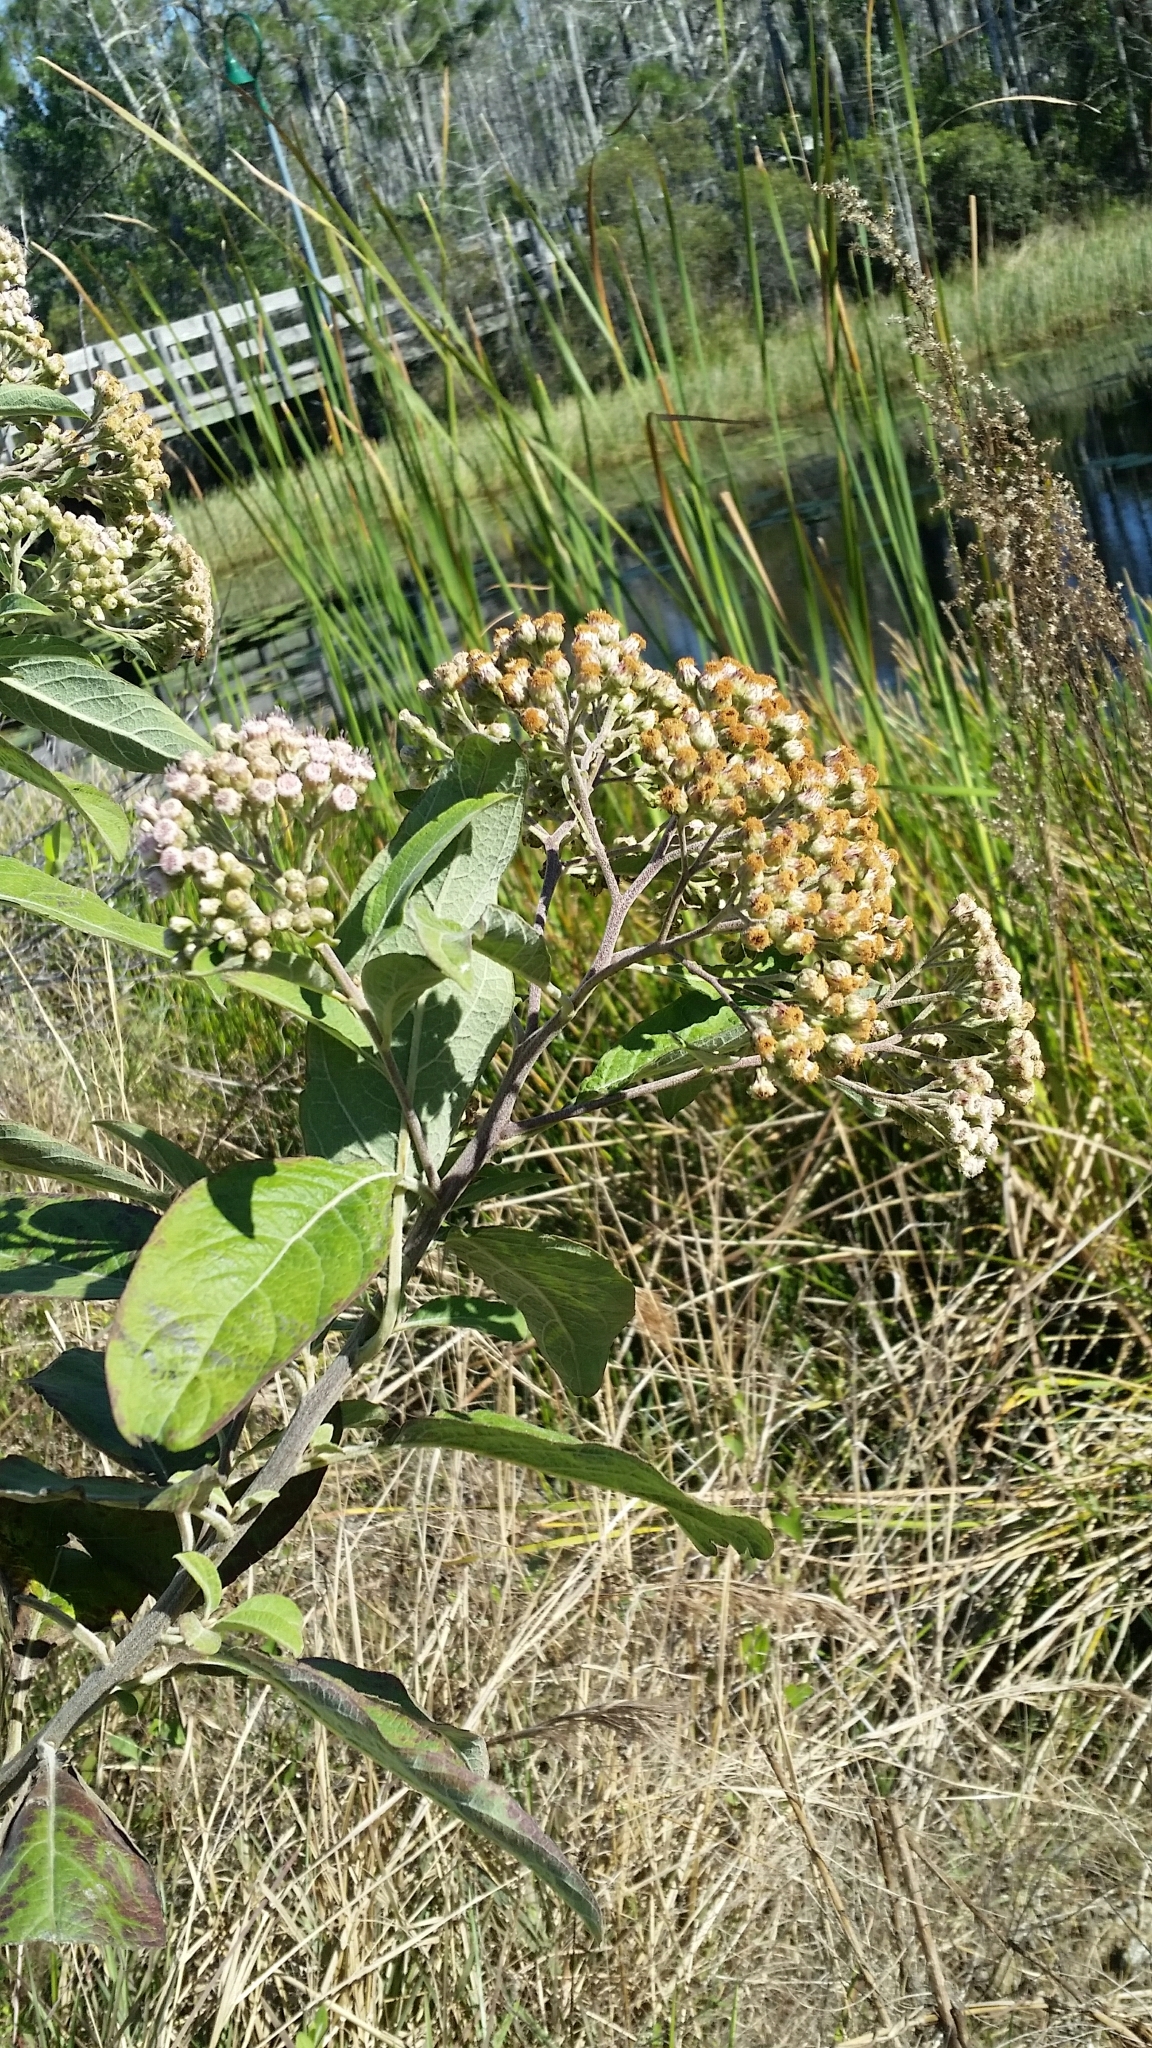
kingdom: Plantae
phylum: Tracheophyta
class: Magnoliopsida
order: Asterales
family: Asteraceae
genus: Pluchea
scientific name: Pluchea carolinensis
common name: Marsh fleabane
